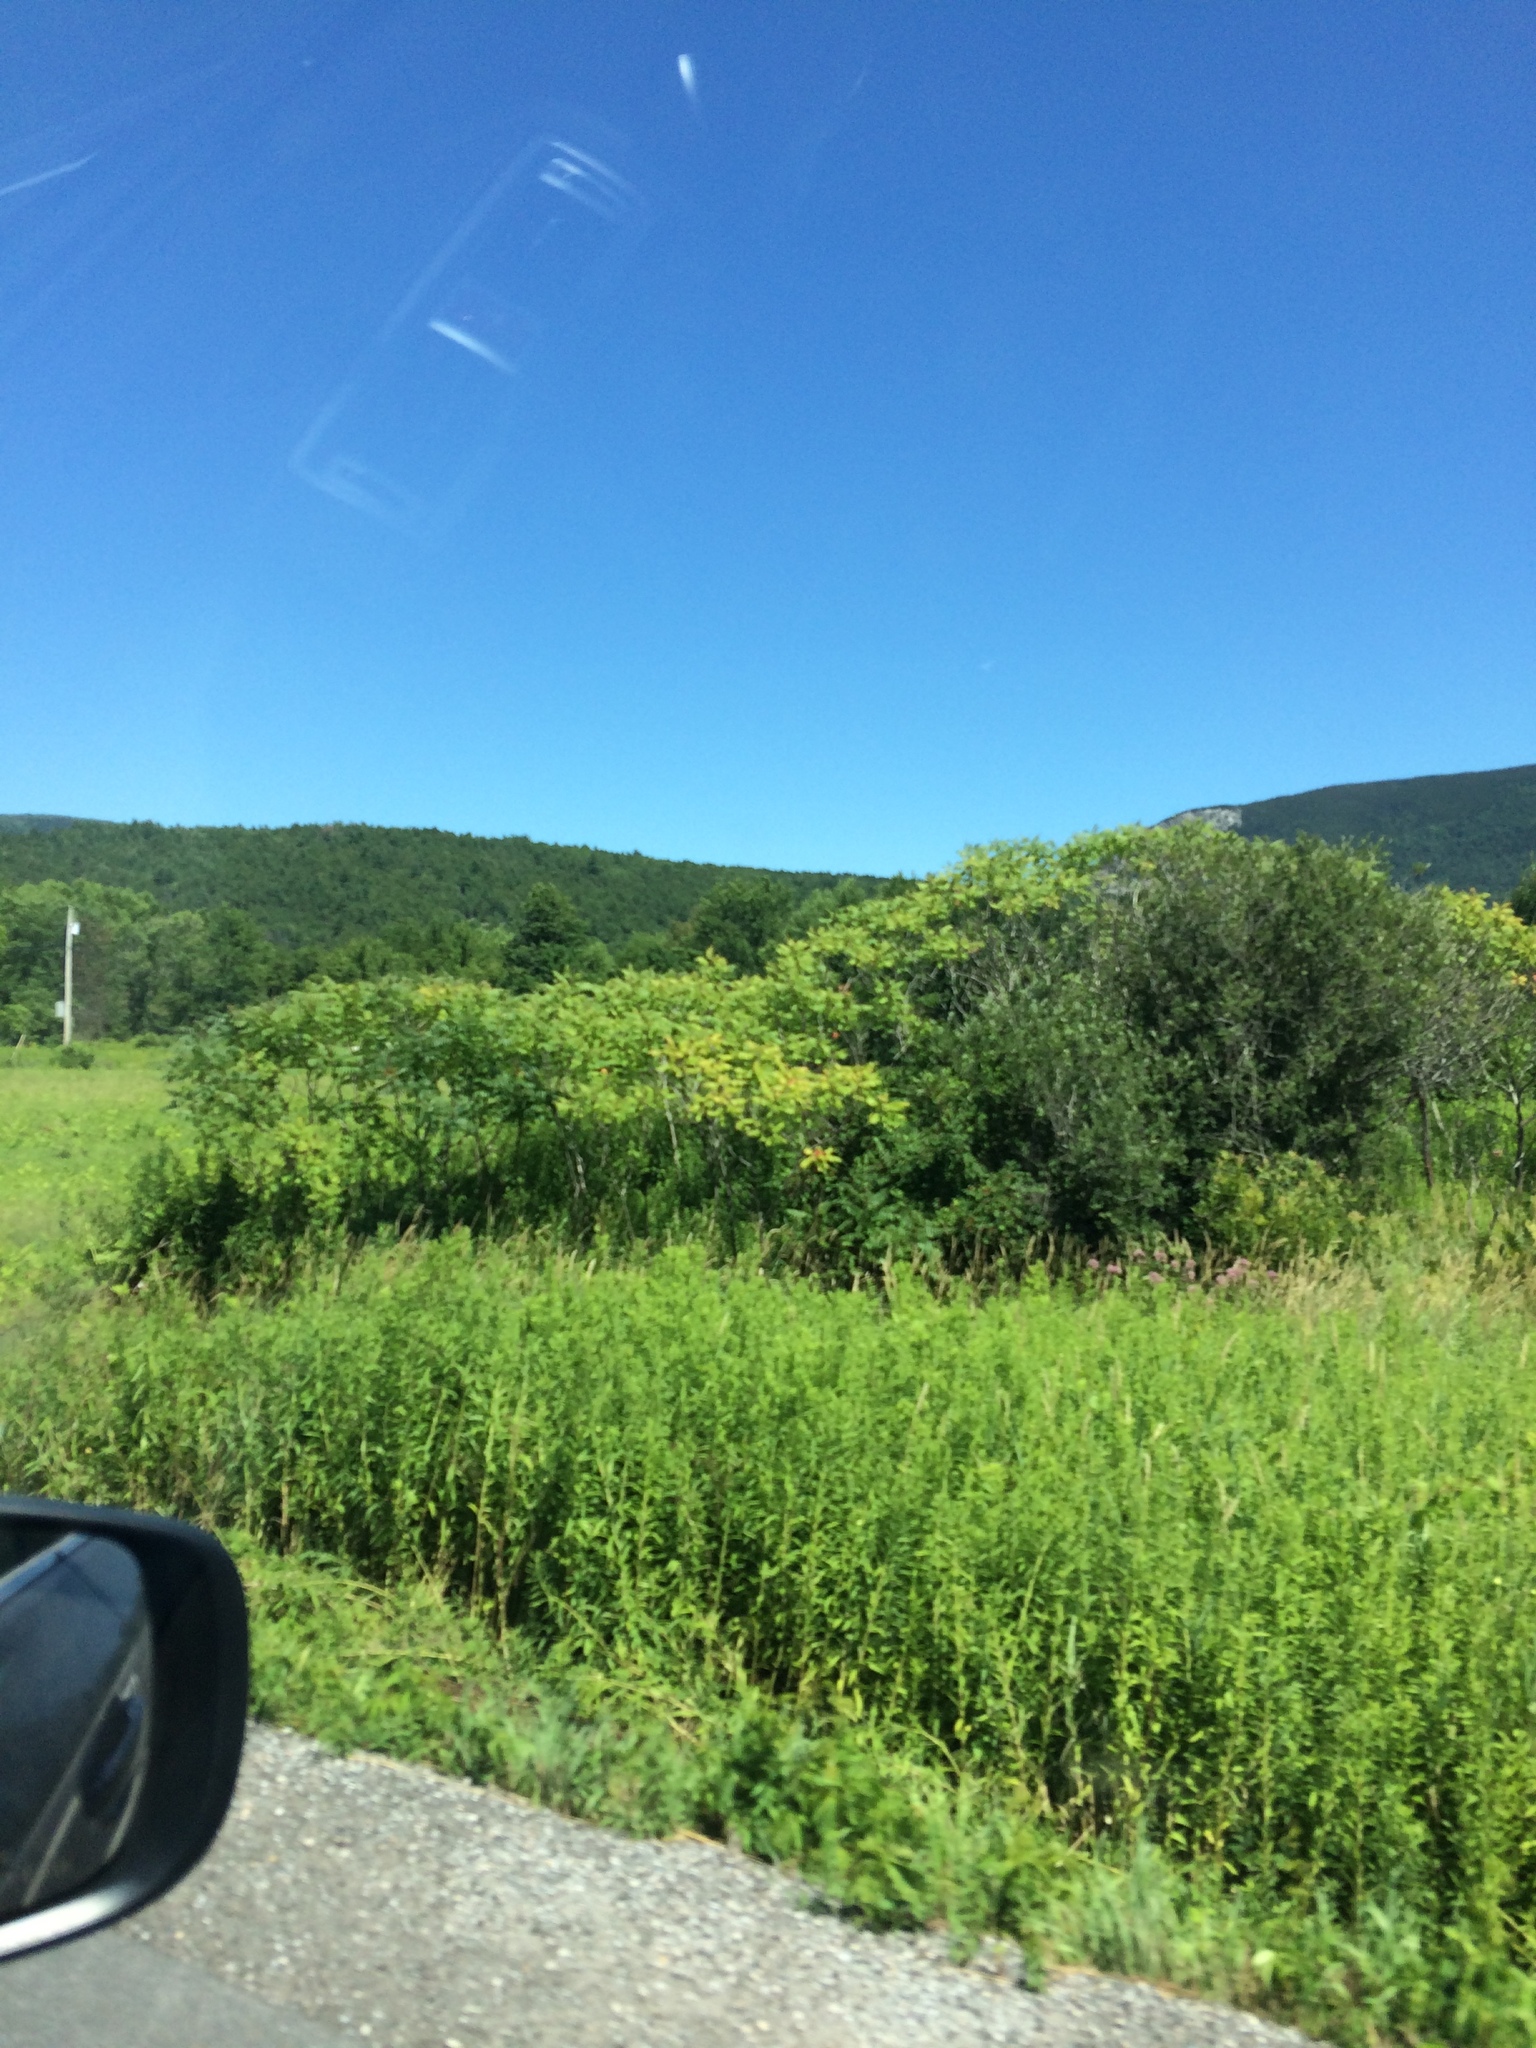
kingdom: Plantae
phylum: Tracheophyta
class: Magnoliopsida
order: Sapindales
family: Anacardiaceae
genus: Rhus
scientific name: Rhus typhina
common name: Staghorn sumac
